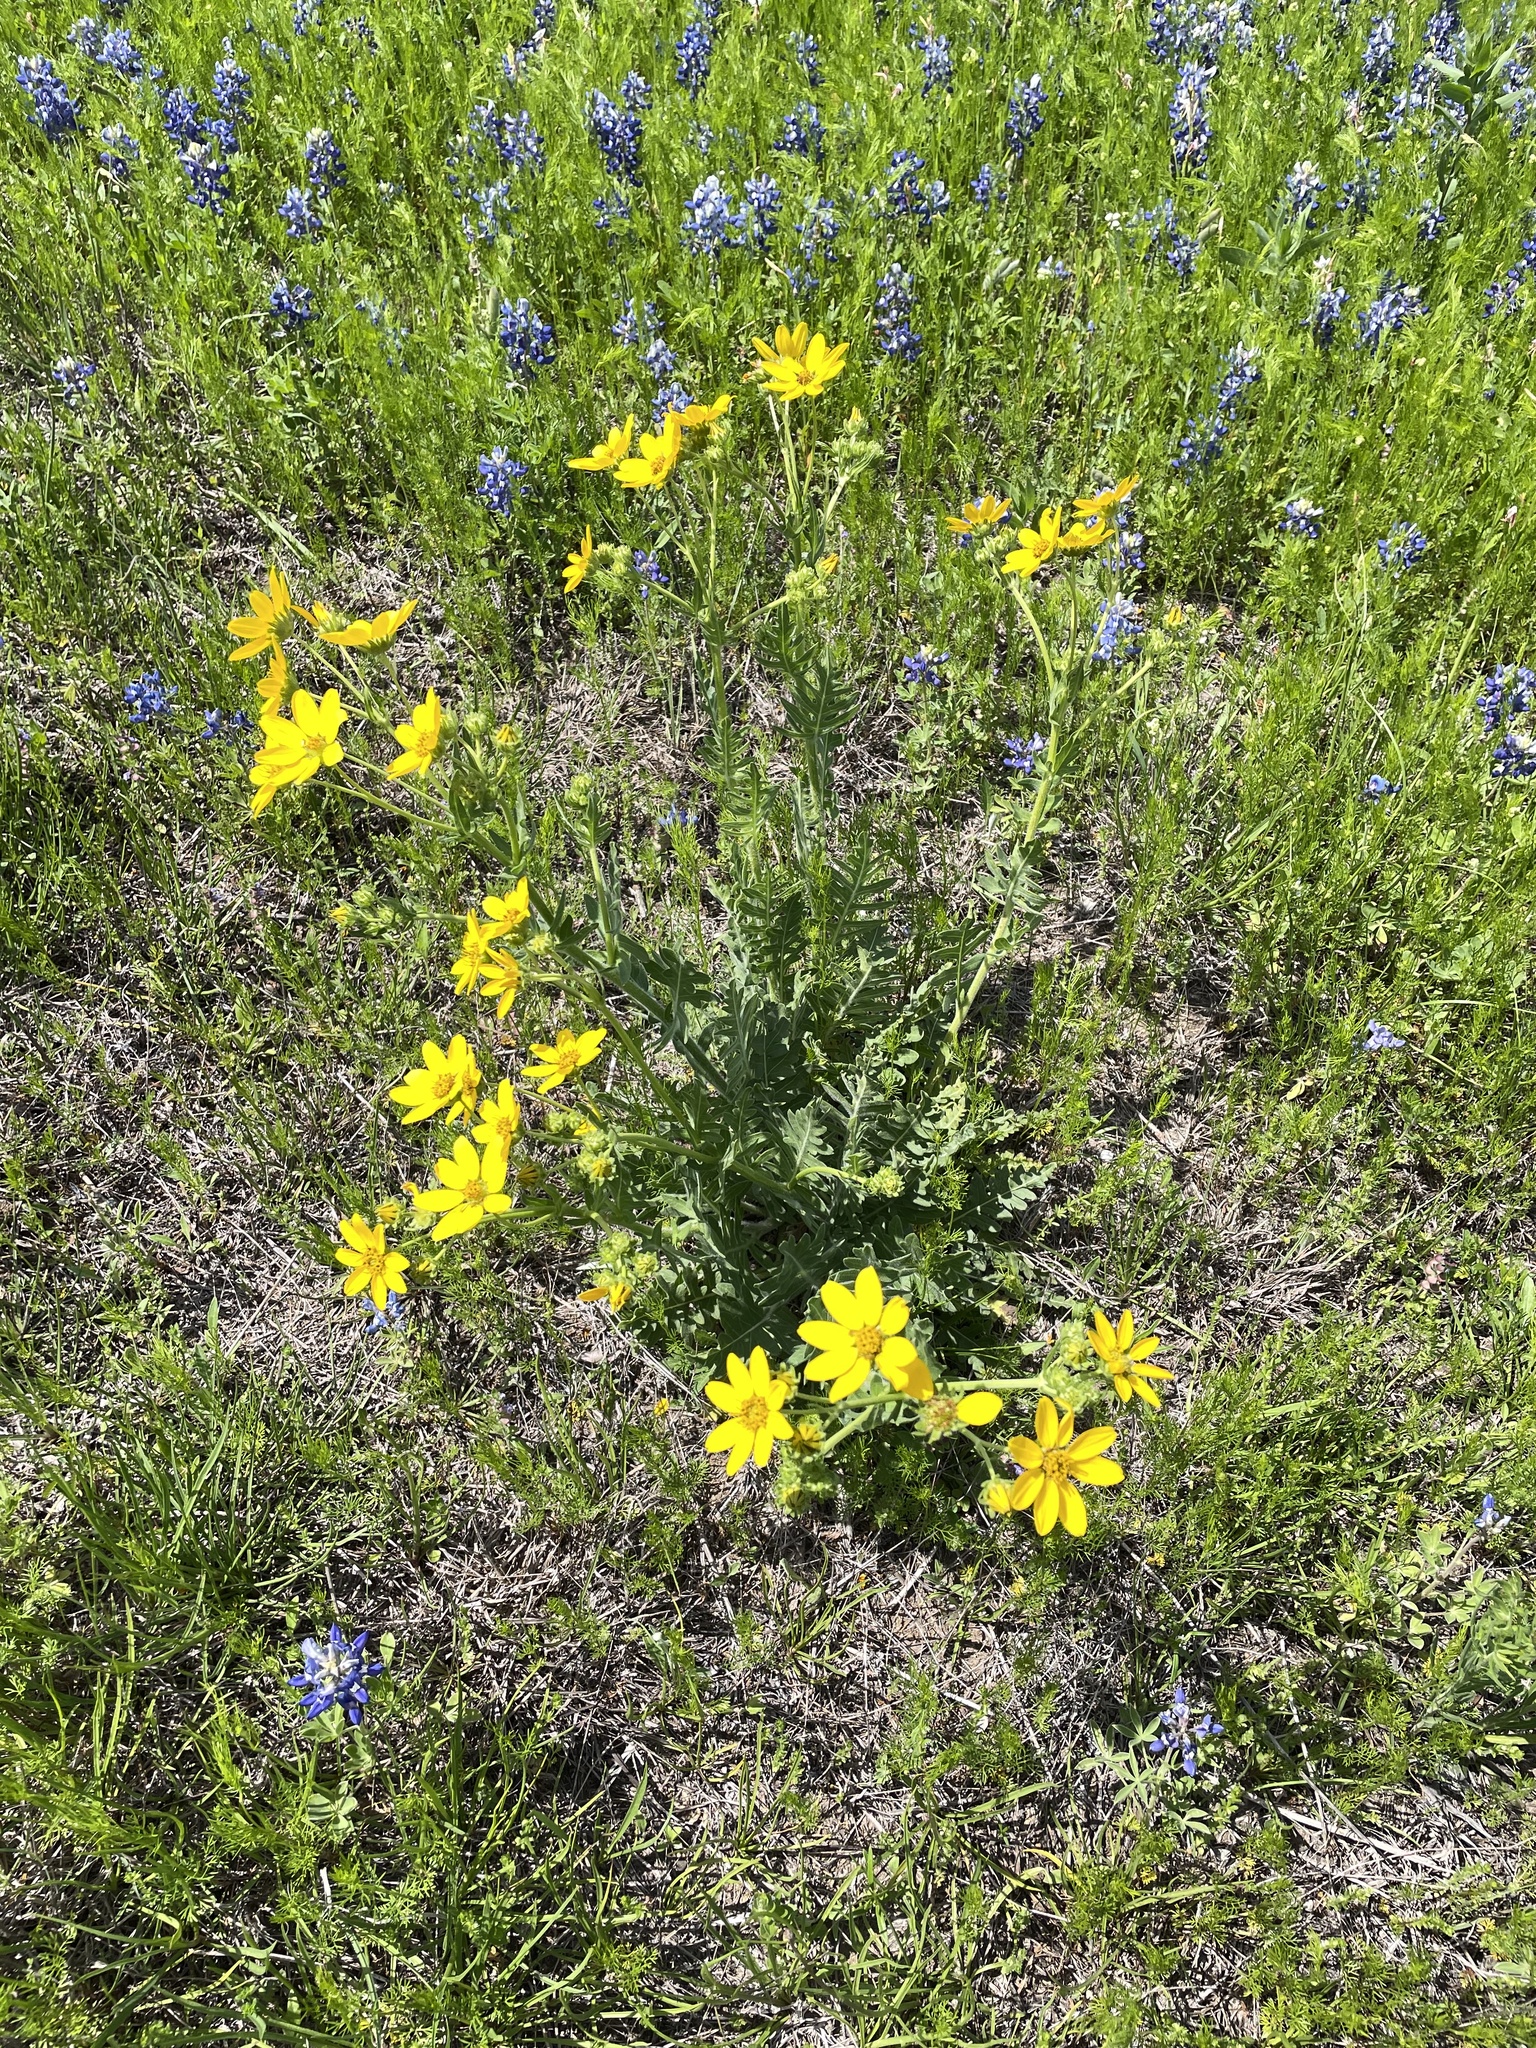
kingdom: Plantae
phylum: Tracheophyta
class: Magnoliopsida
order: Asterales
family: Asteraceae
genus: Engelmannia
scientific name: Engelmannia peristenia
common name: Engelmann's daisy
